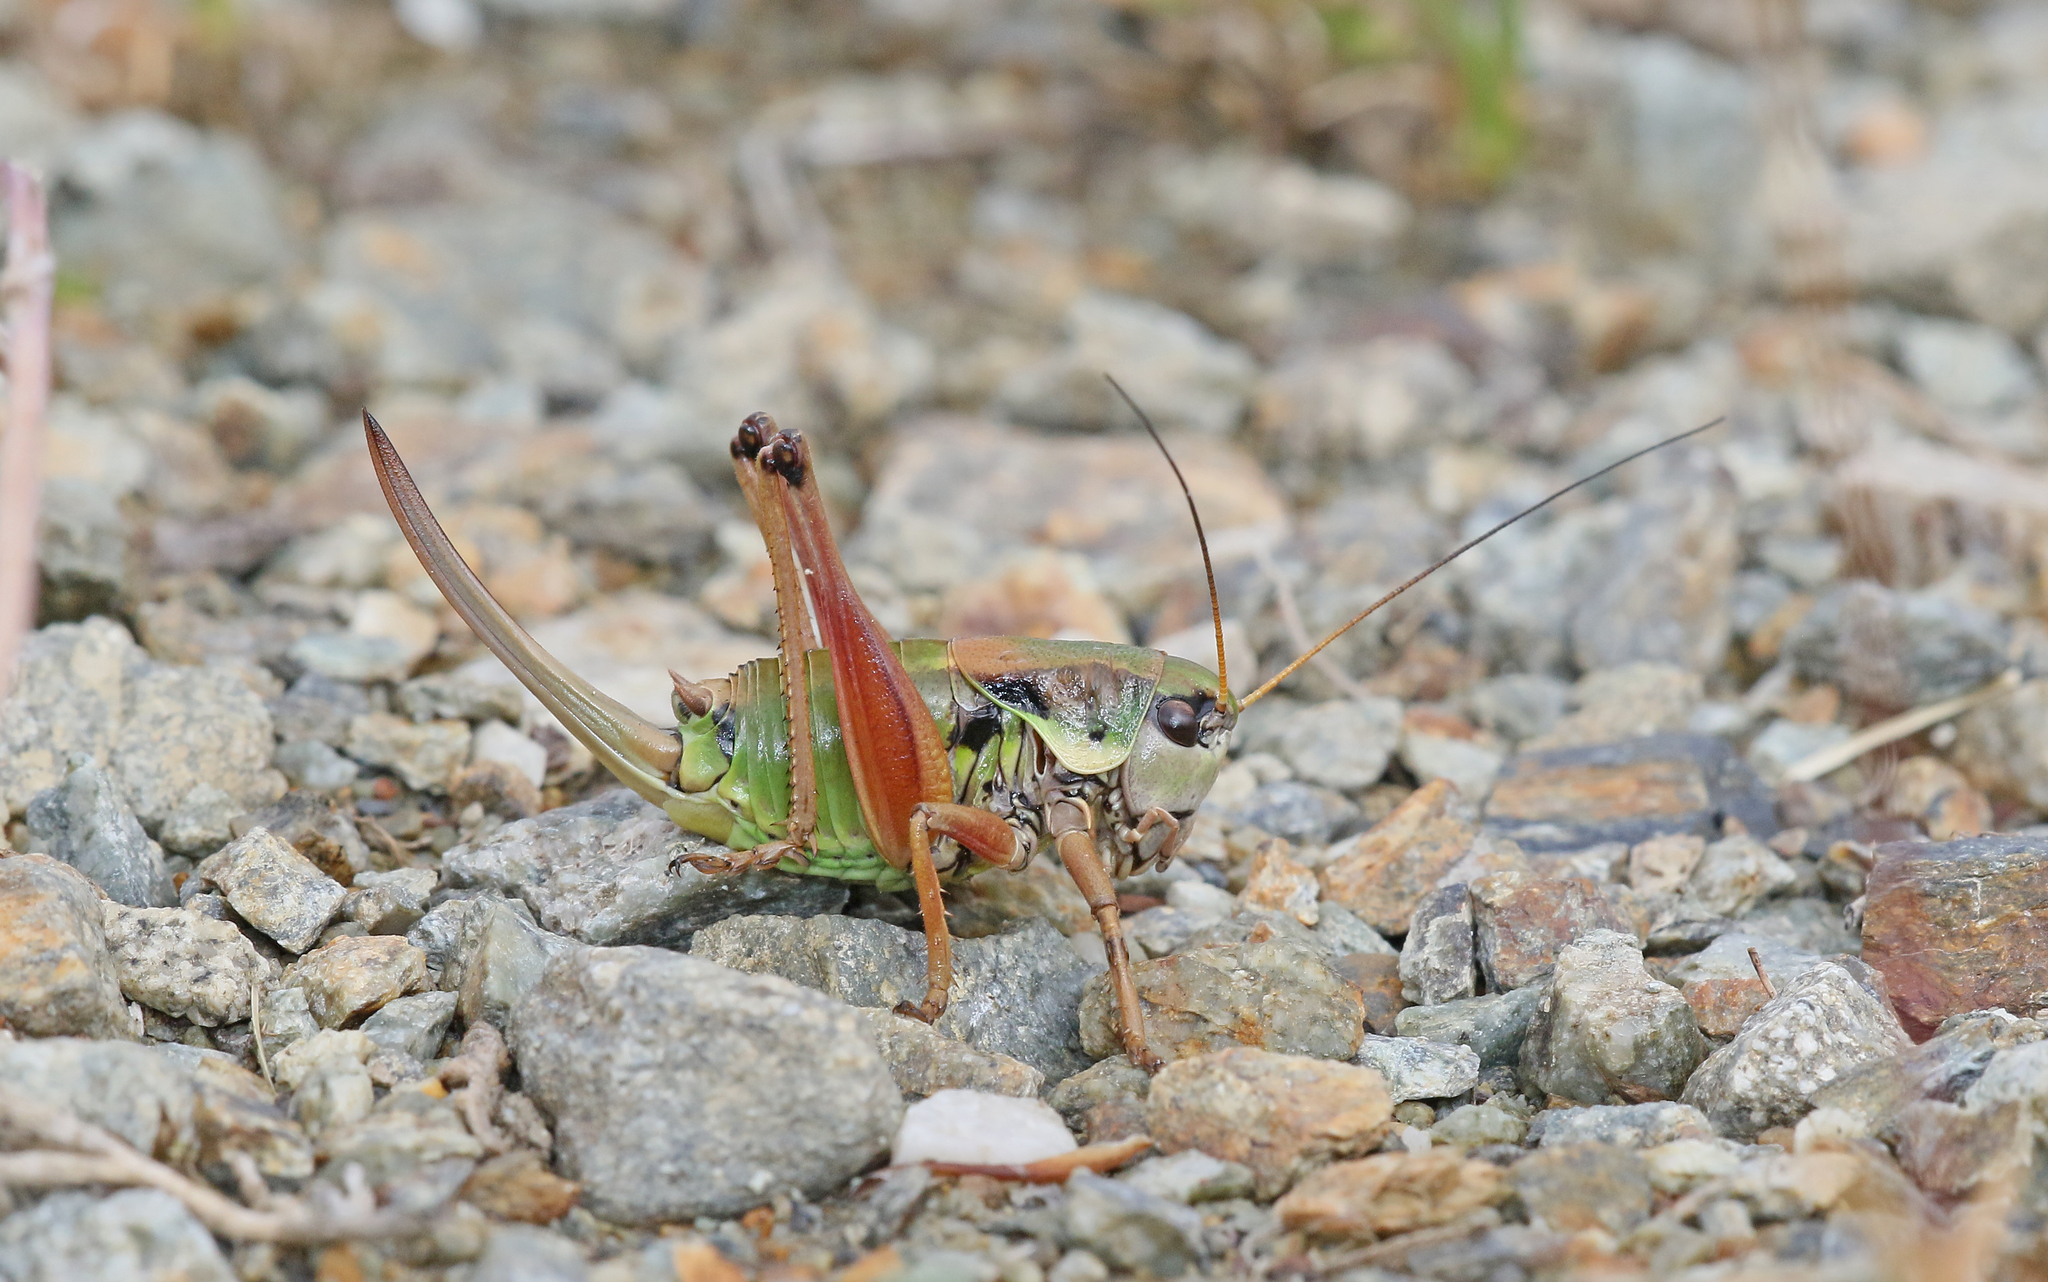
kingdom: Animalia
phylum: Arthropoda
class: Insecta
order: Orthoptera
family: Tettigoniidae
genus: Anonconotus
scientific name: Anonconotus occidentalis
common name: Western alpine bush-cricket
